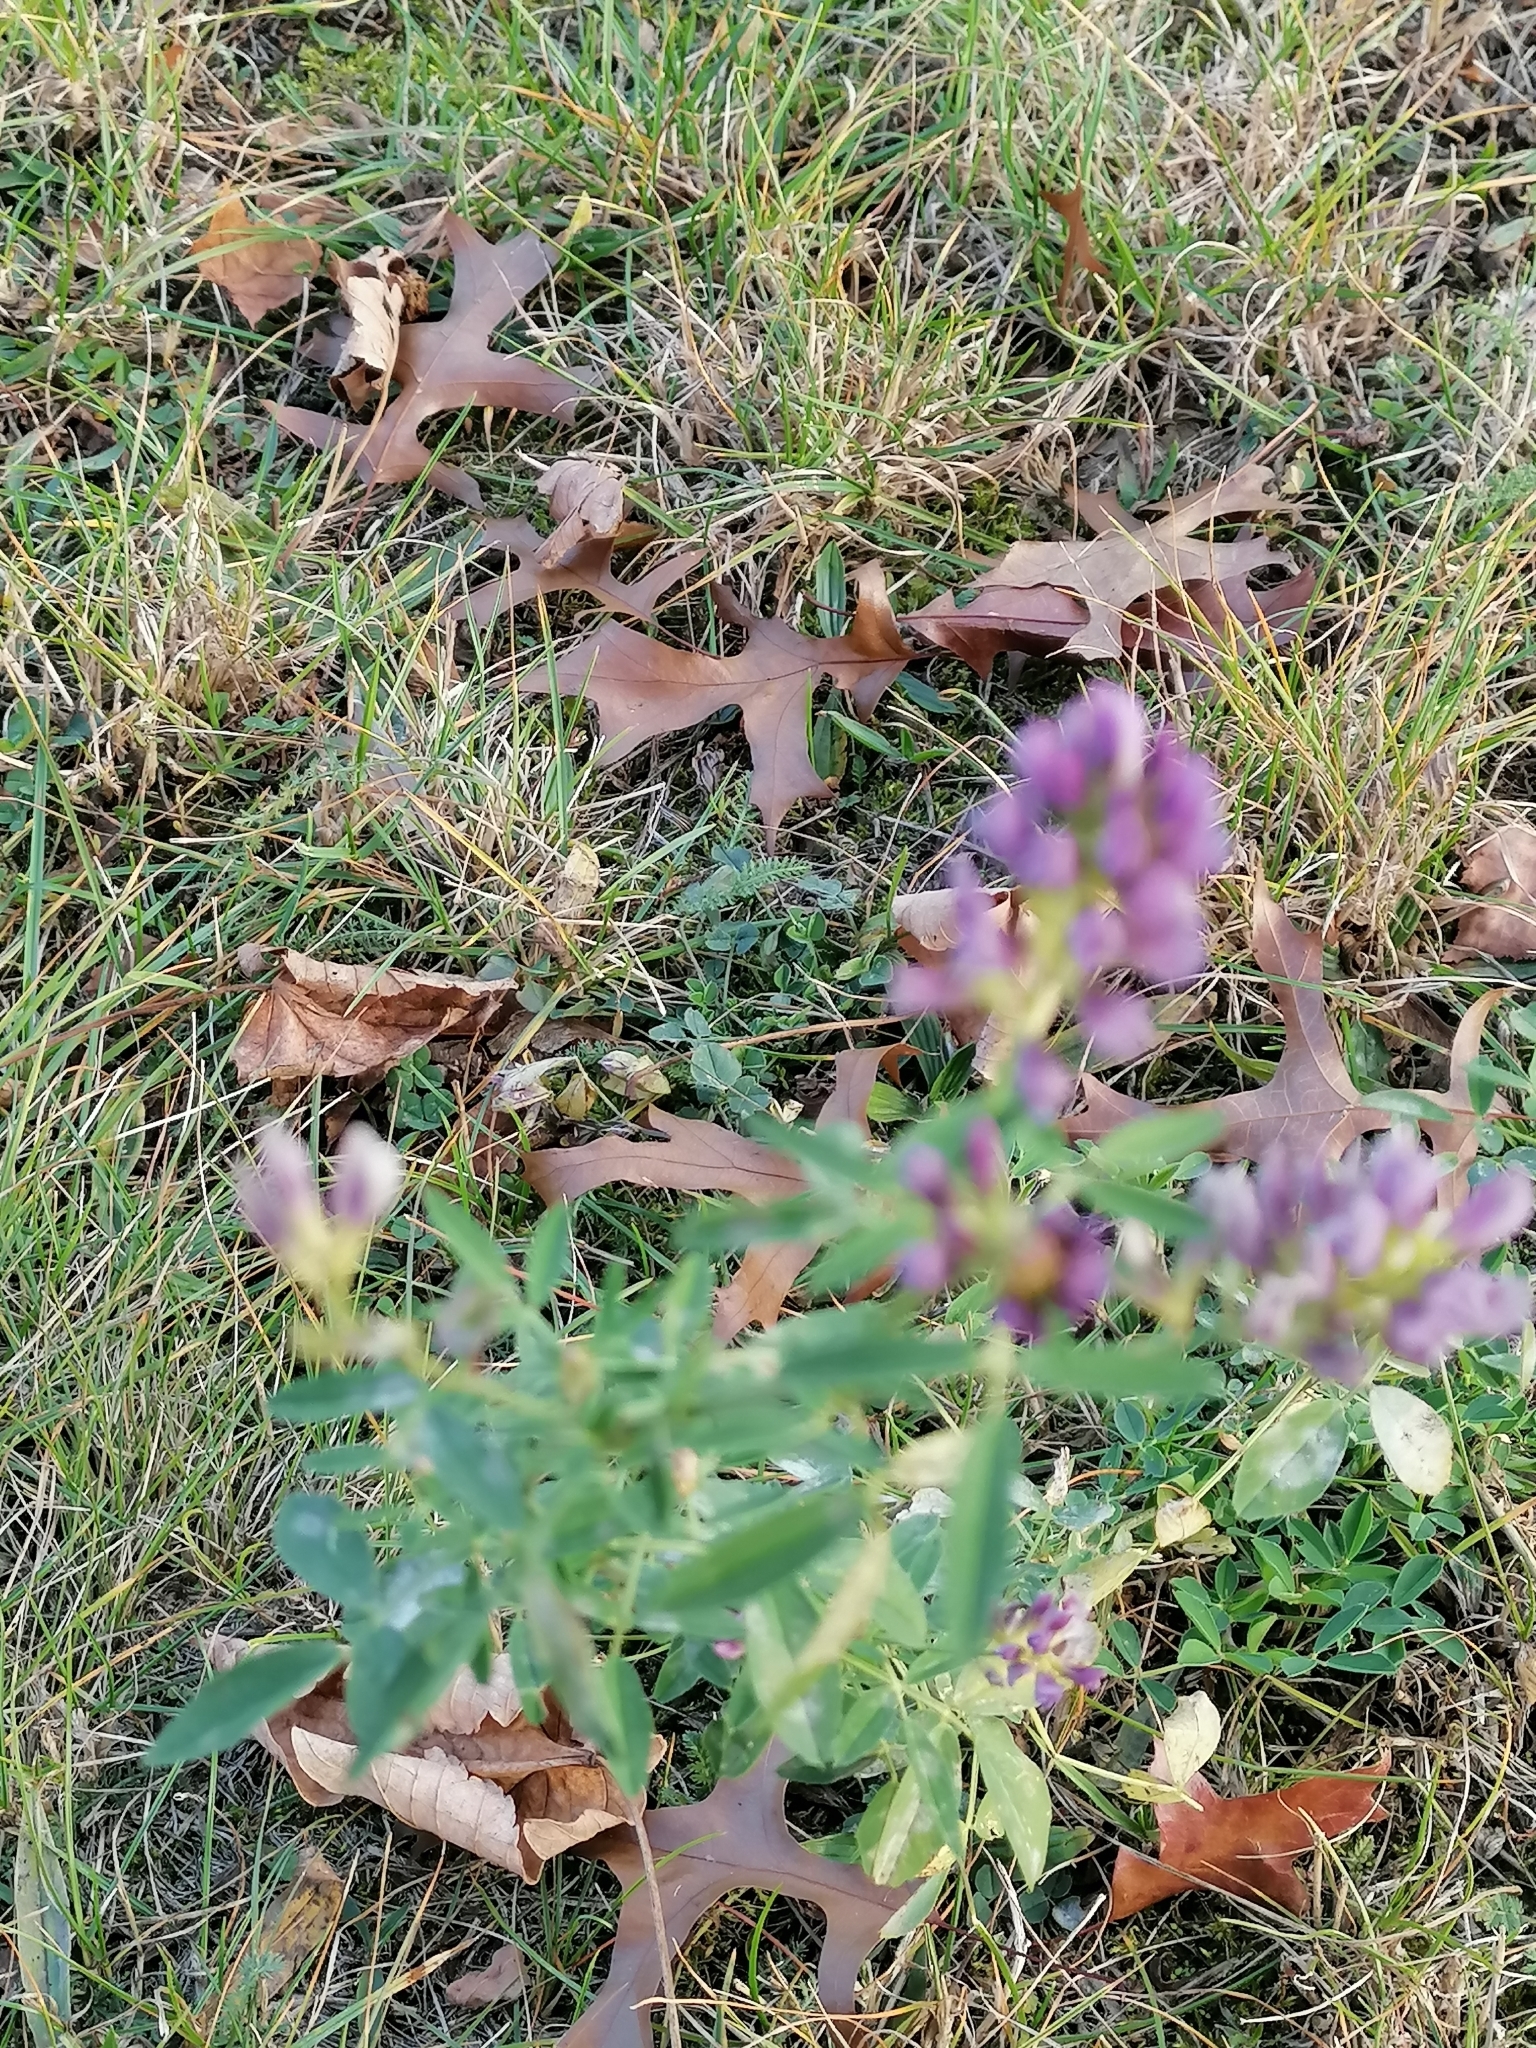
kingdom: Plantae
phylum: Tracheophyta
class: Magnoliopsida
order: Fabales
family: Fabaceae
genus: Medicago
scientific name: Medicago sativa
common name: Alfalfa
